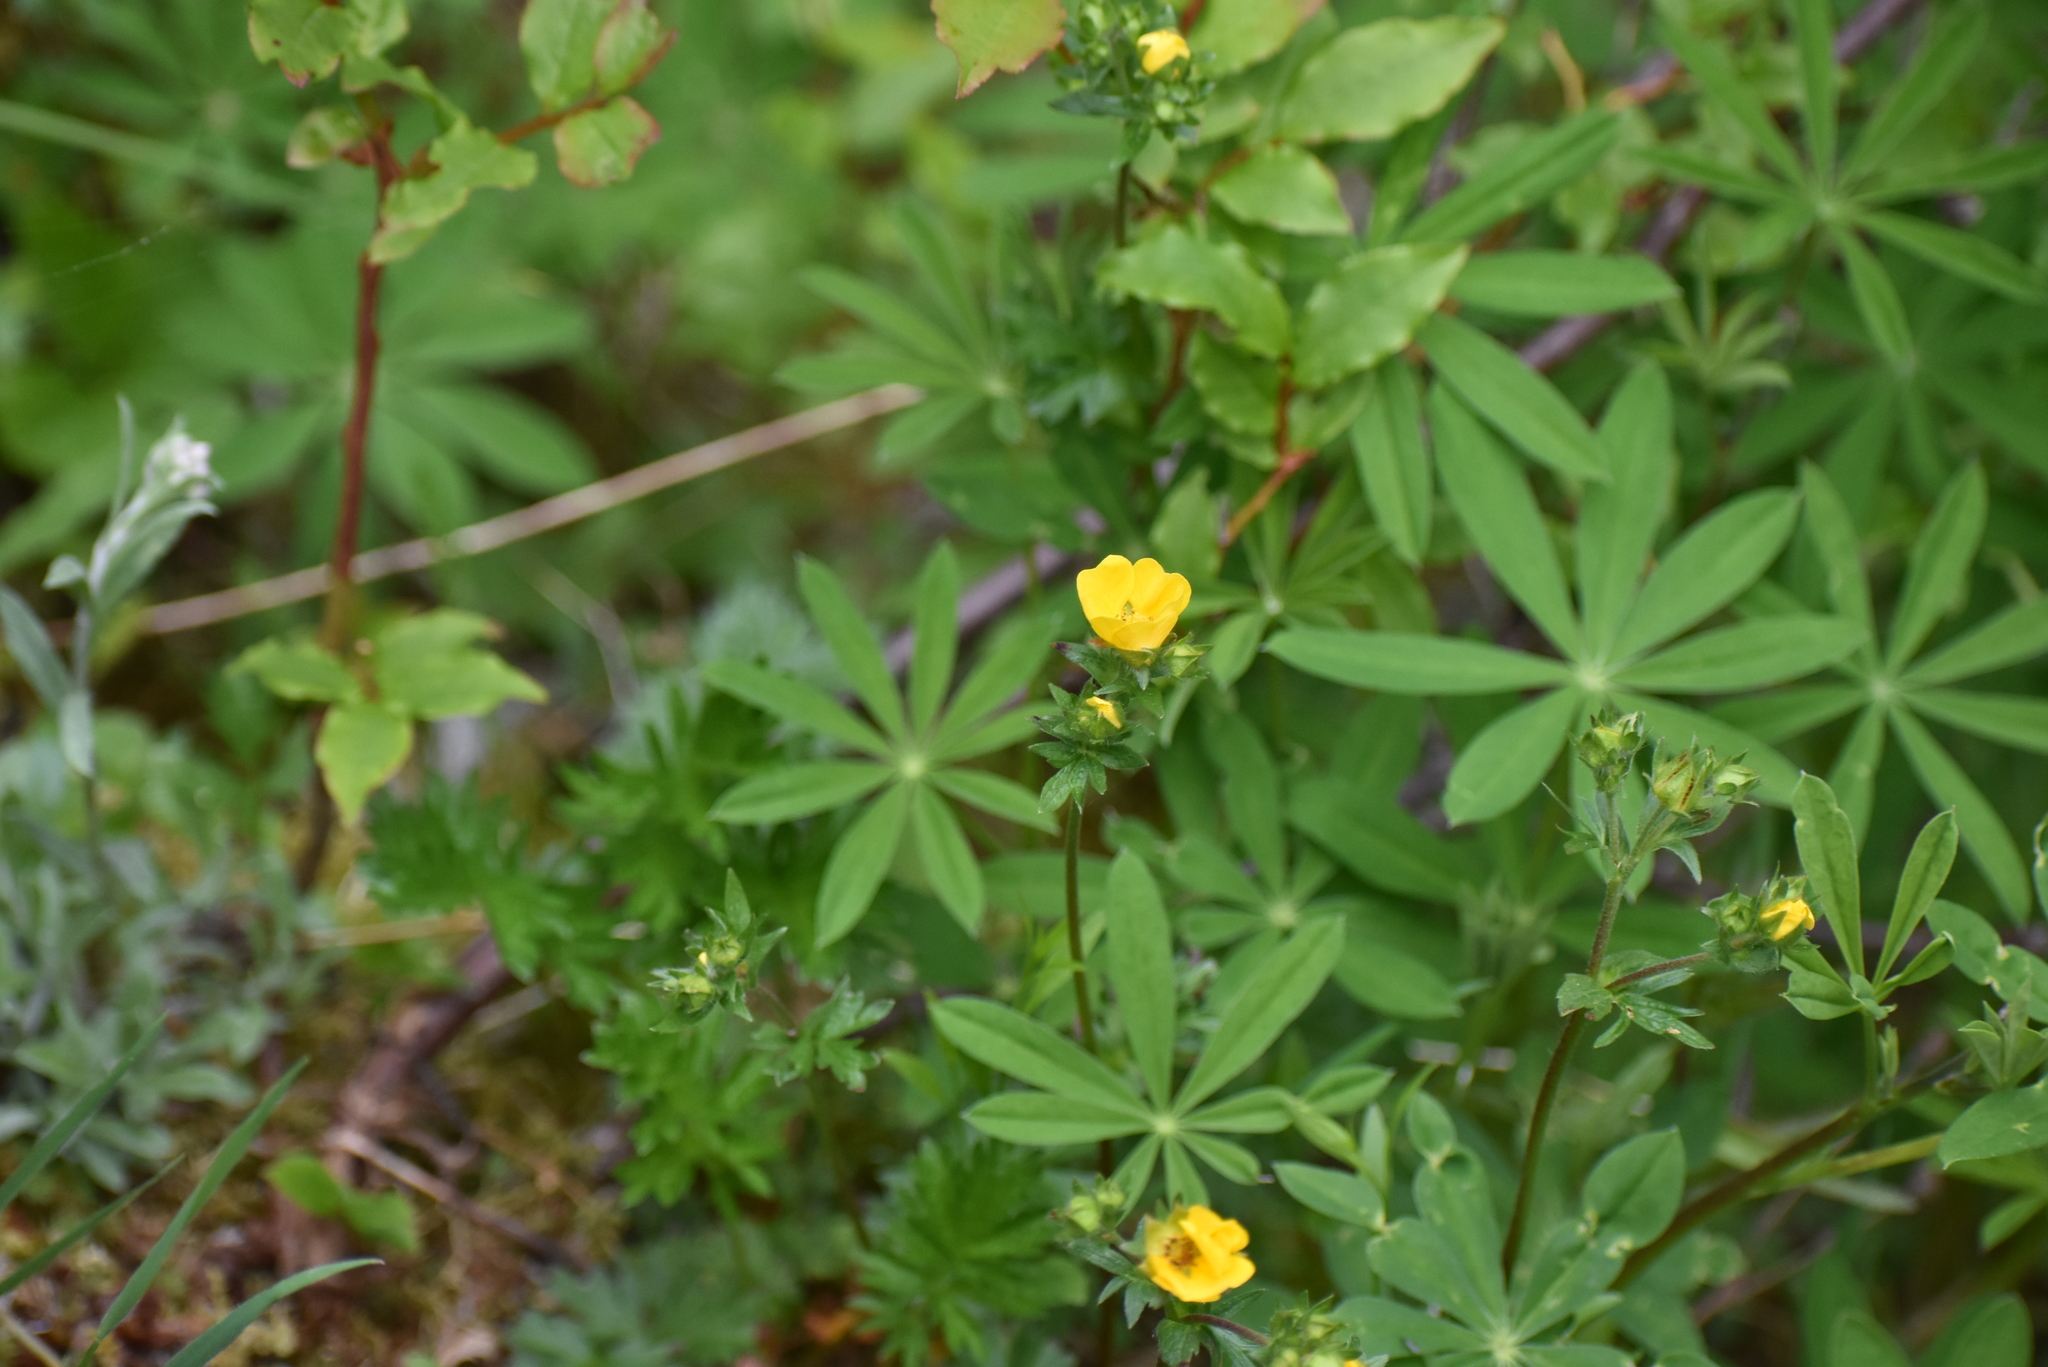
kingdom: Plantae
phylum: Tracheophyta
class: Magnoliopsida
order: Fabales
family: Fabaceae
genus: Lupinus
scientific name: Lupinus polyphyllus
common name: Garden lupin
